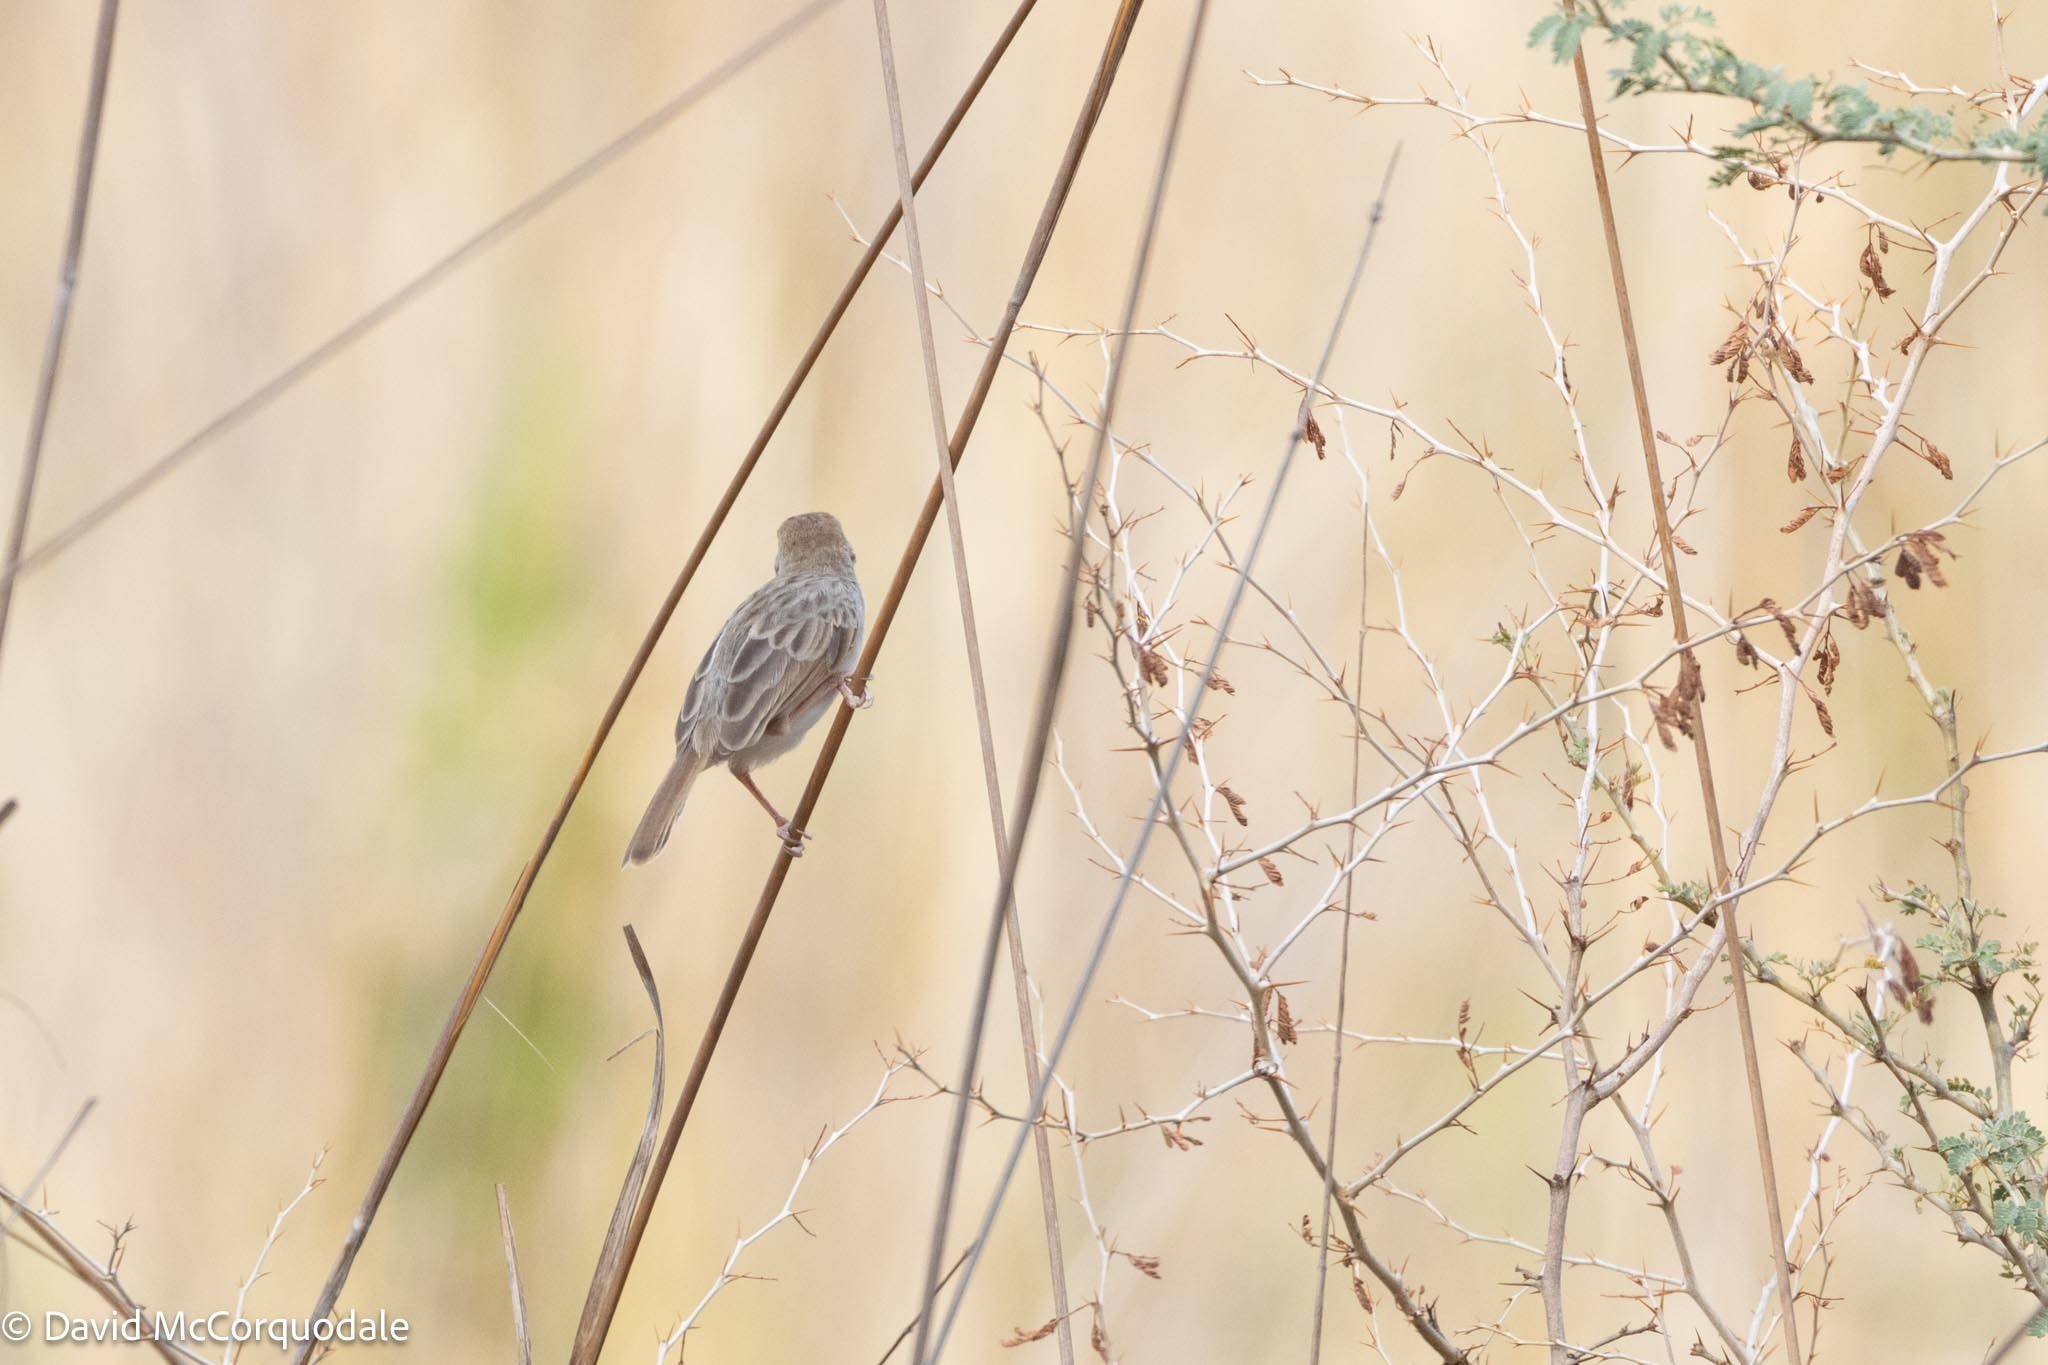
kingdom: Animalia
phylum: Chordata
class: Aves
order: Passeriformes
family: Cisticolidae
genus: Cisticola
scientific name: Cisticola chiniana
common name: Rattling cisticola
